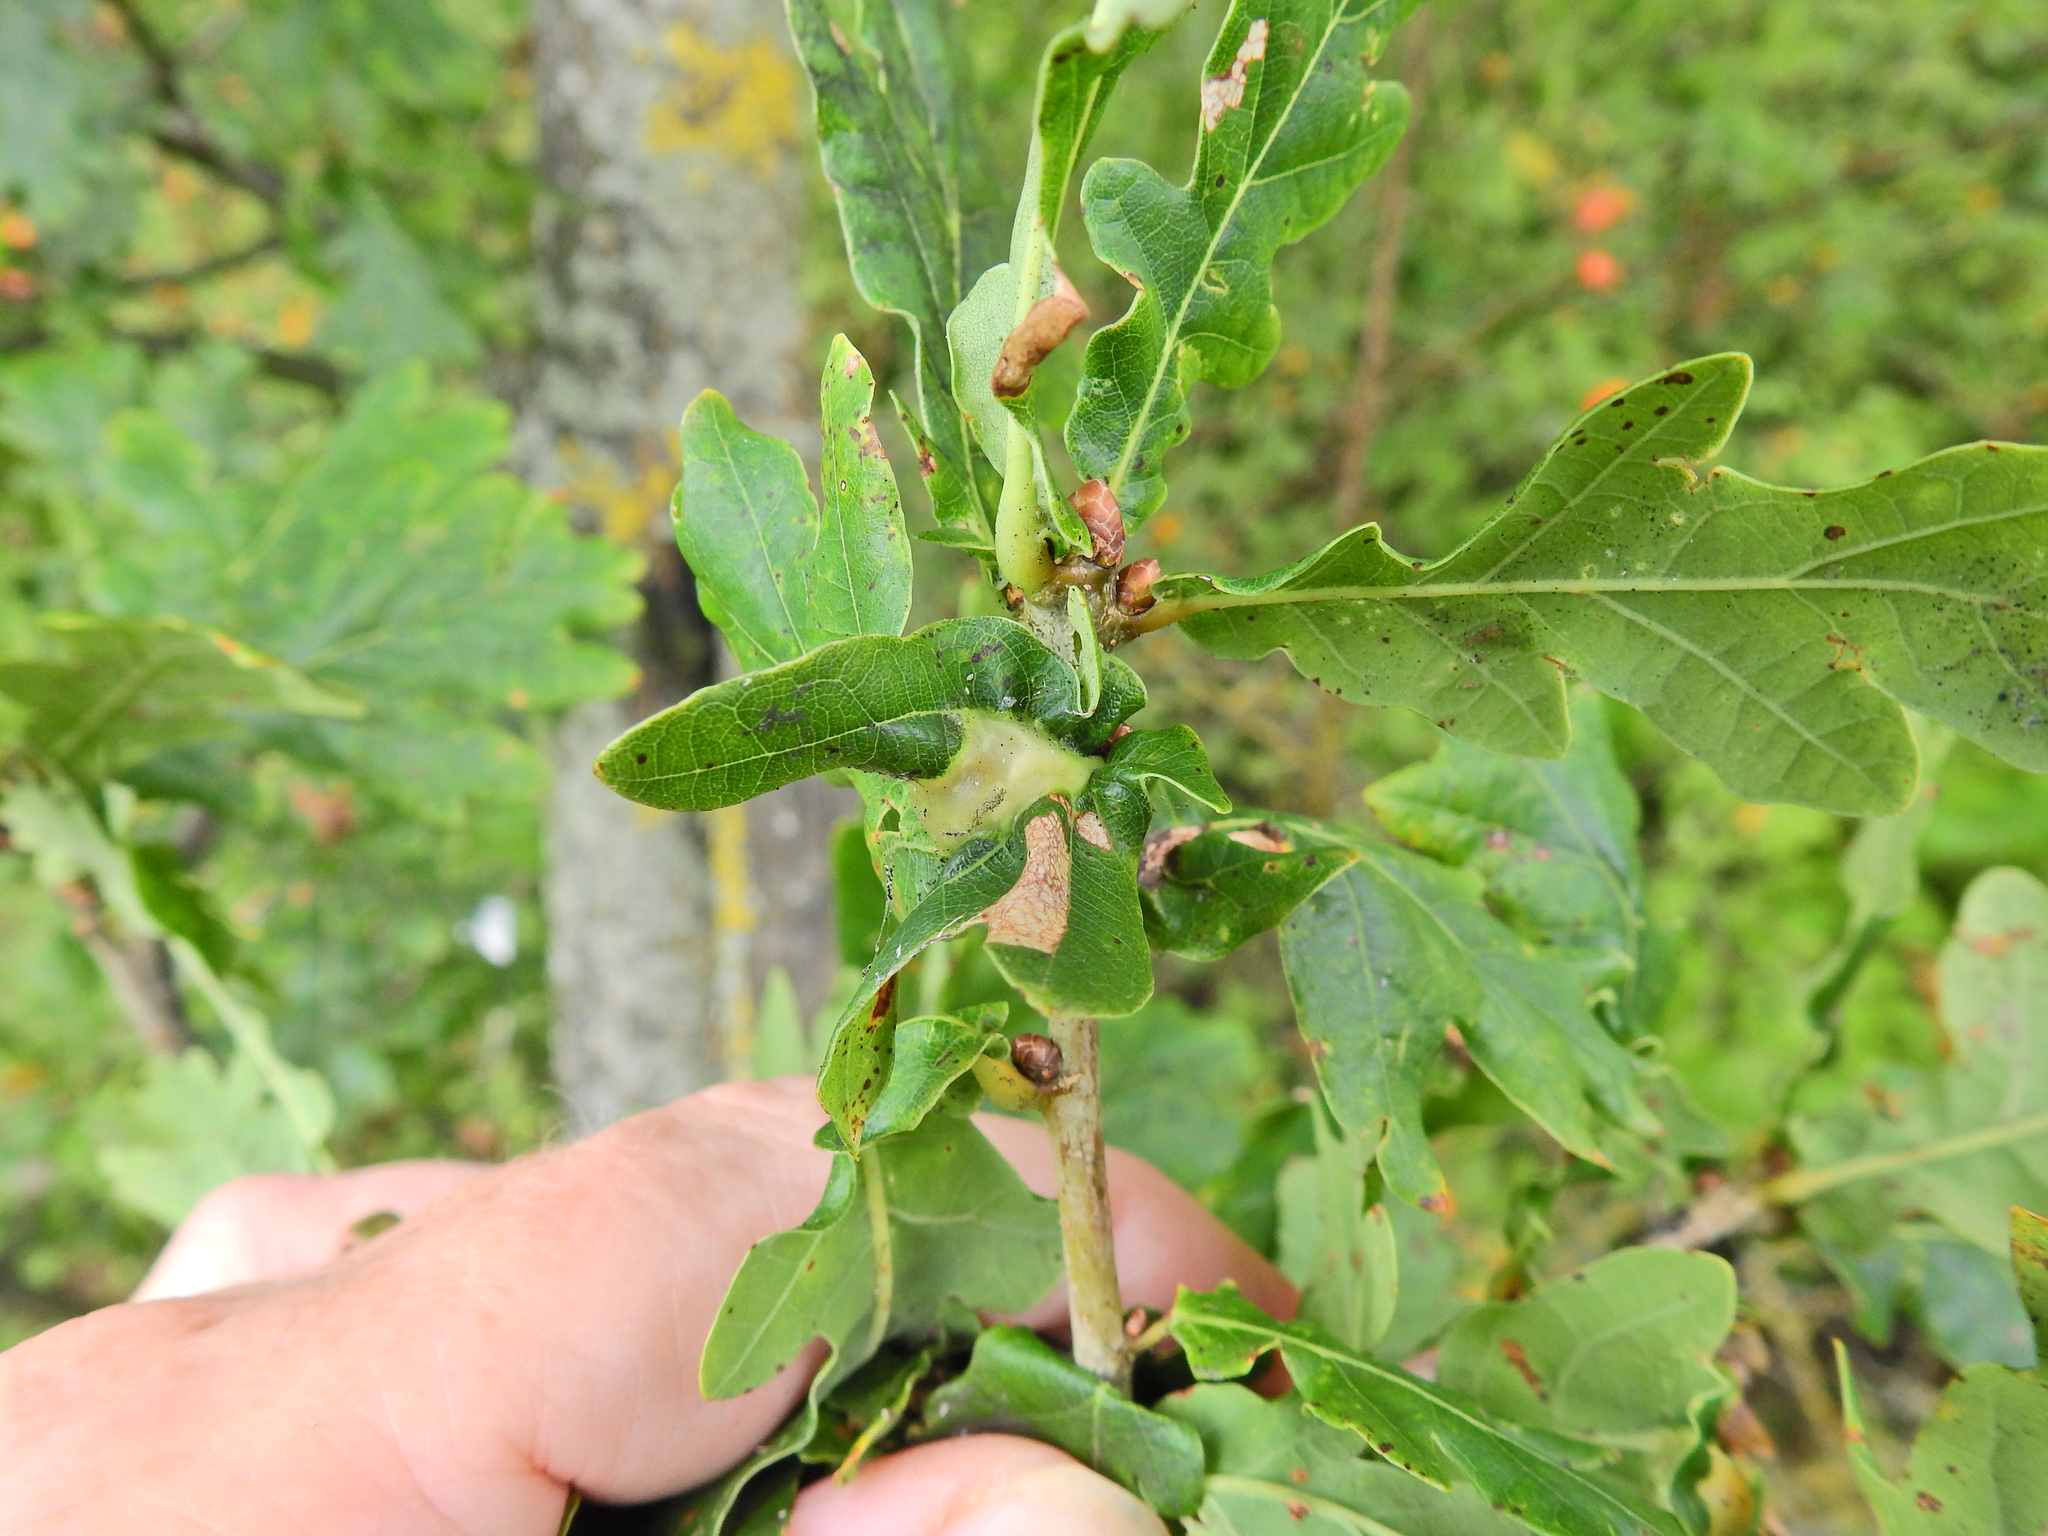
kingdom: Animalia
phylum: Arthropoda
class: Insecta
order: Hymenoptera
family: Cynipidae
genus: Andricus
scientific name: Andricus curvator
